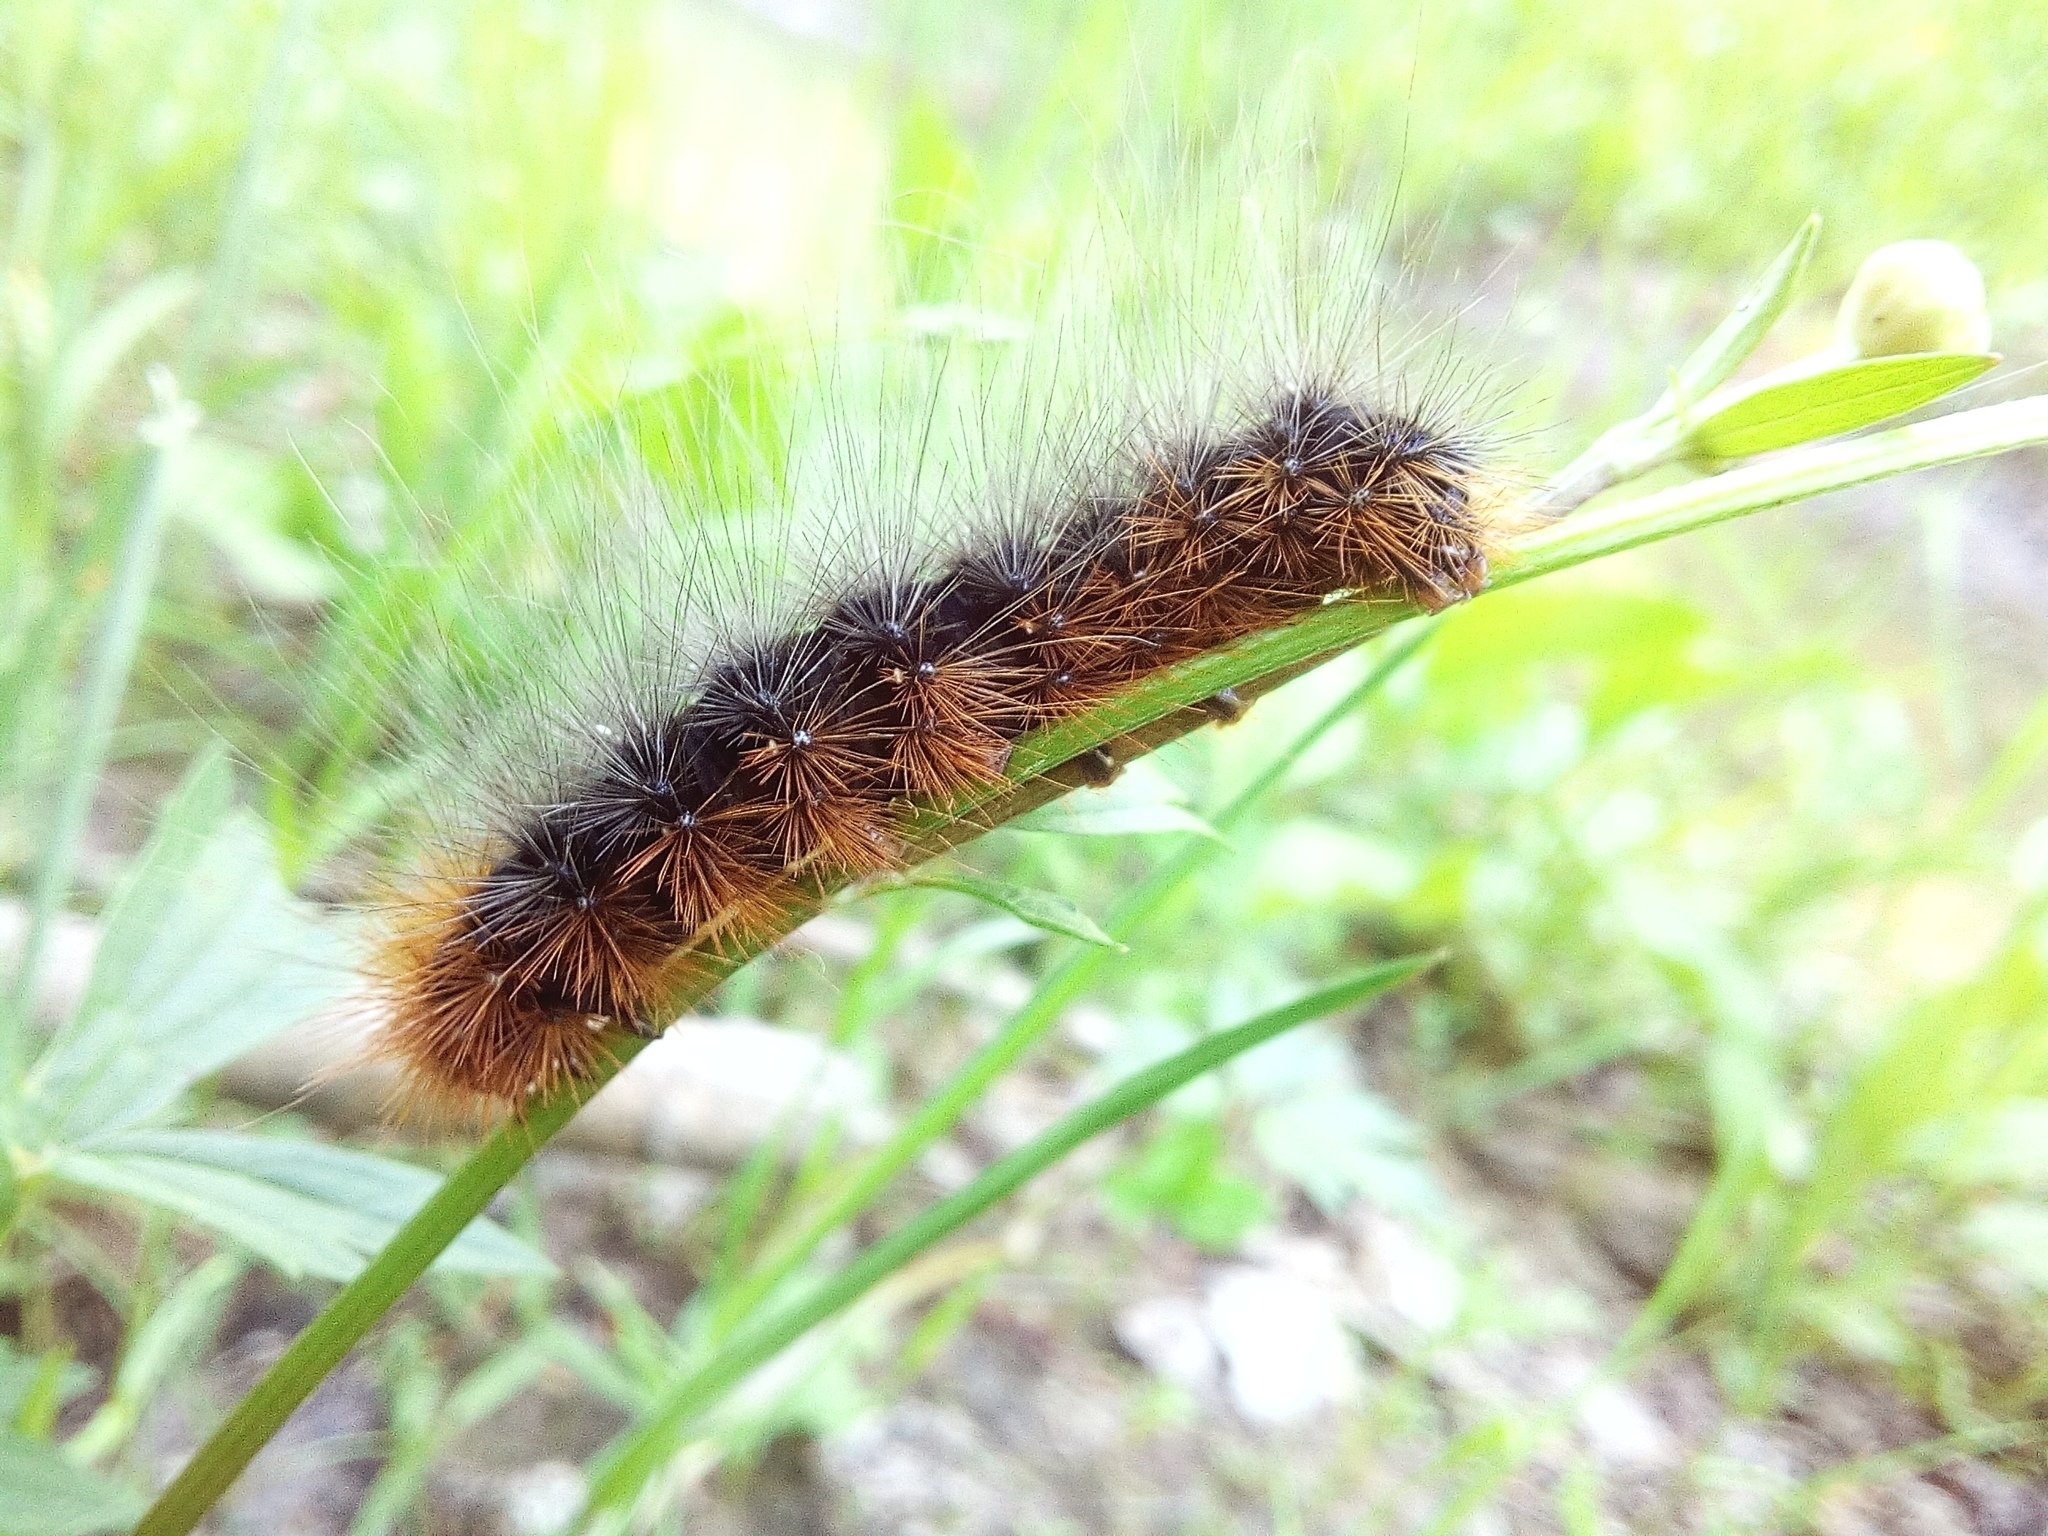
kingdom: Animalia
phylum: Arthropoda
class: Insecta
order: Lepidoptera
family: Erebidae
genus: Arctia
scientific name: Arctia caja
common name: Garden tiger
